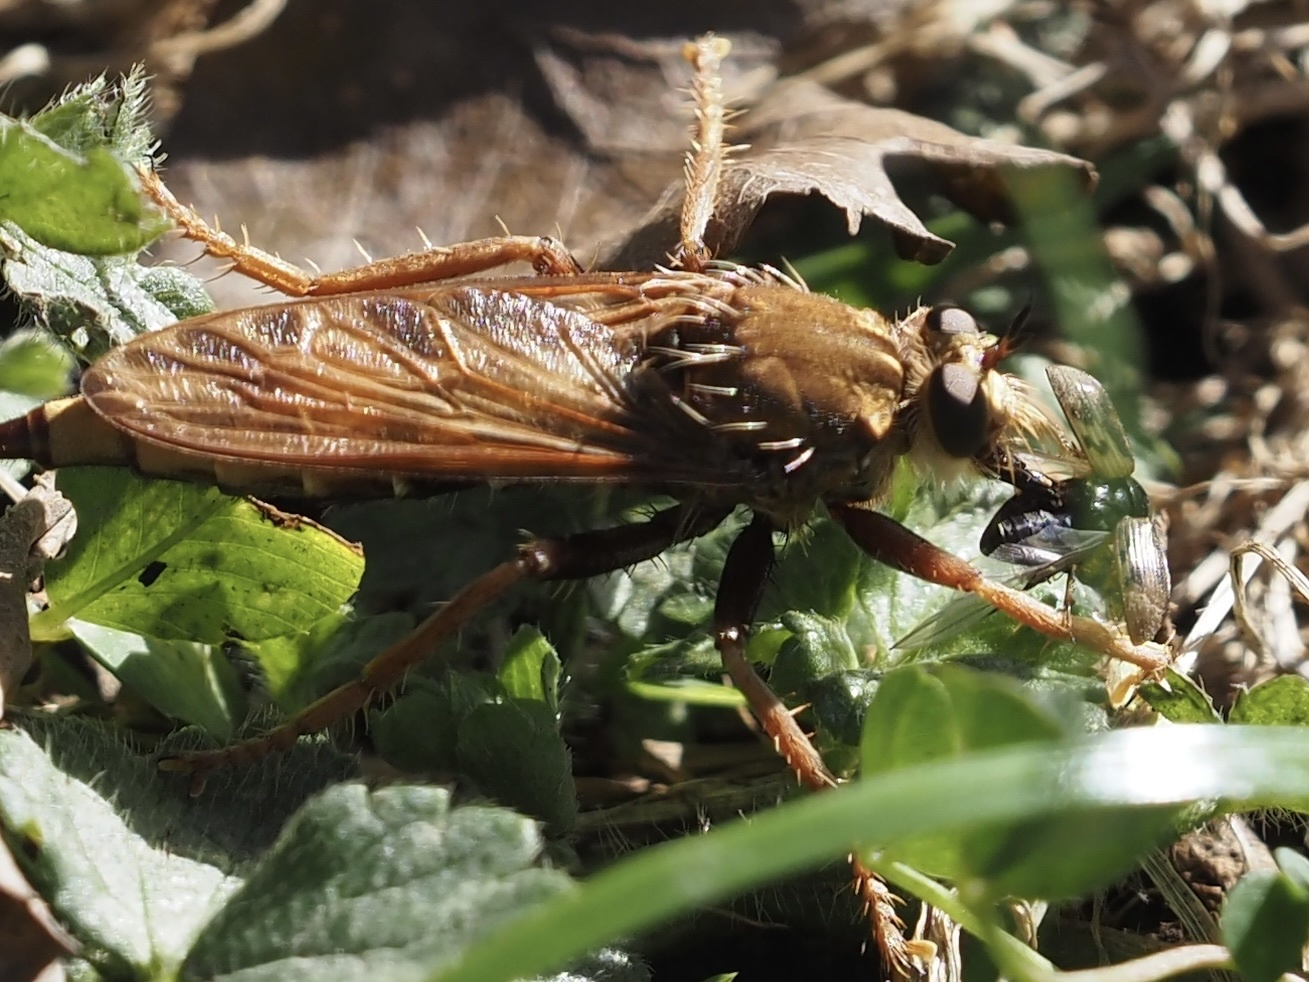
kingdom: Animalia
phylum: Arthropoda
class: Insecta
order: Diptera
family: Asilidae
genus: Asilus
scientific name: Asilus crabroniformis
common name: Hornet robberfly
